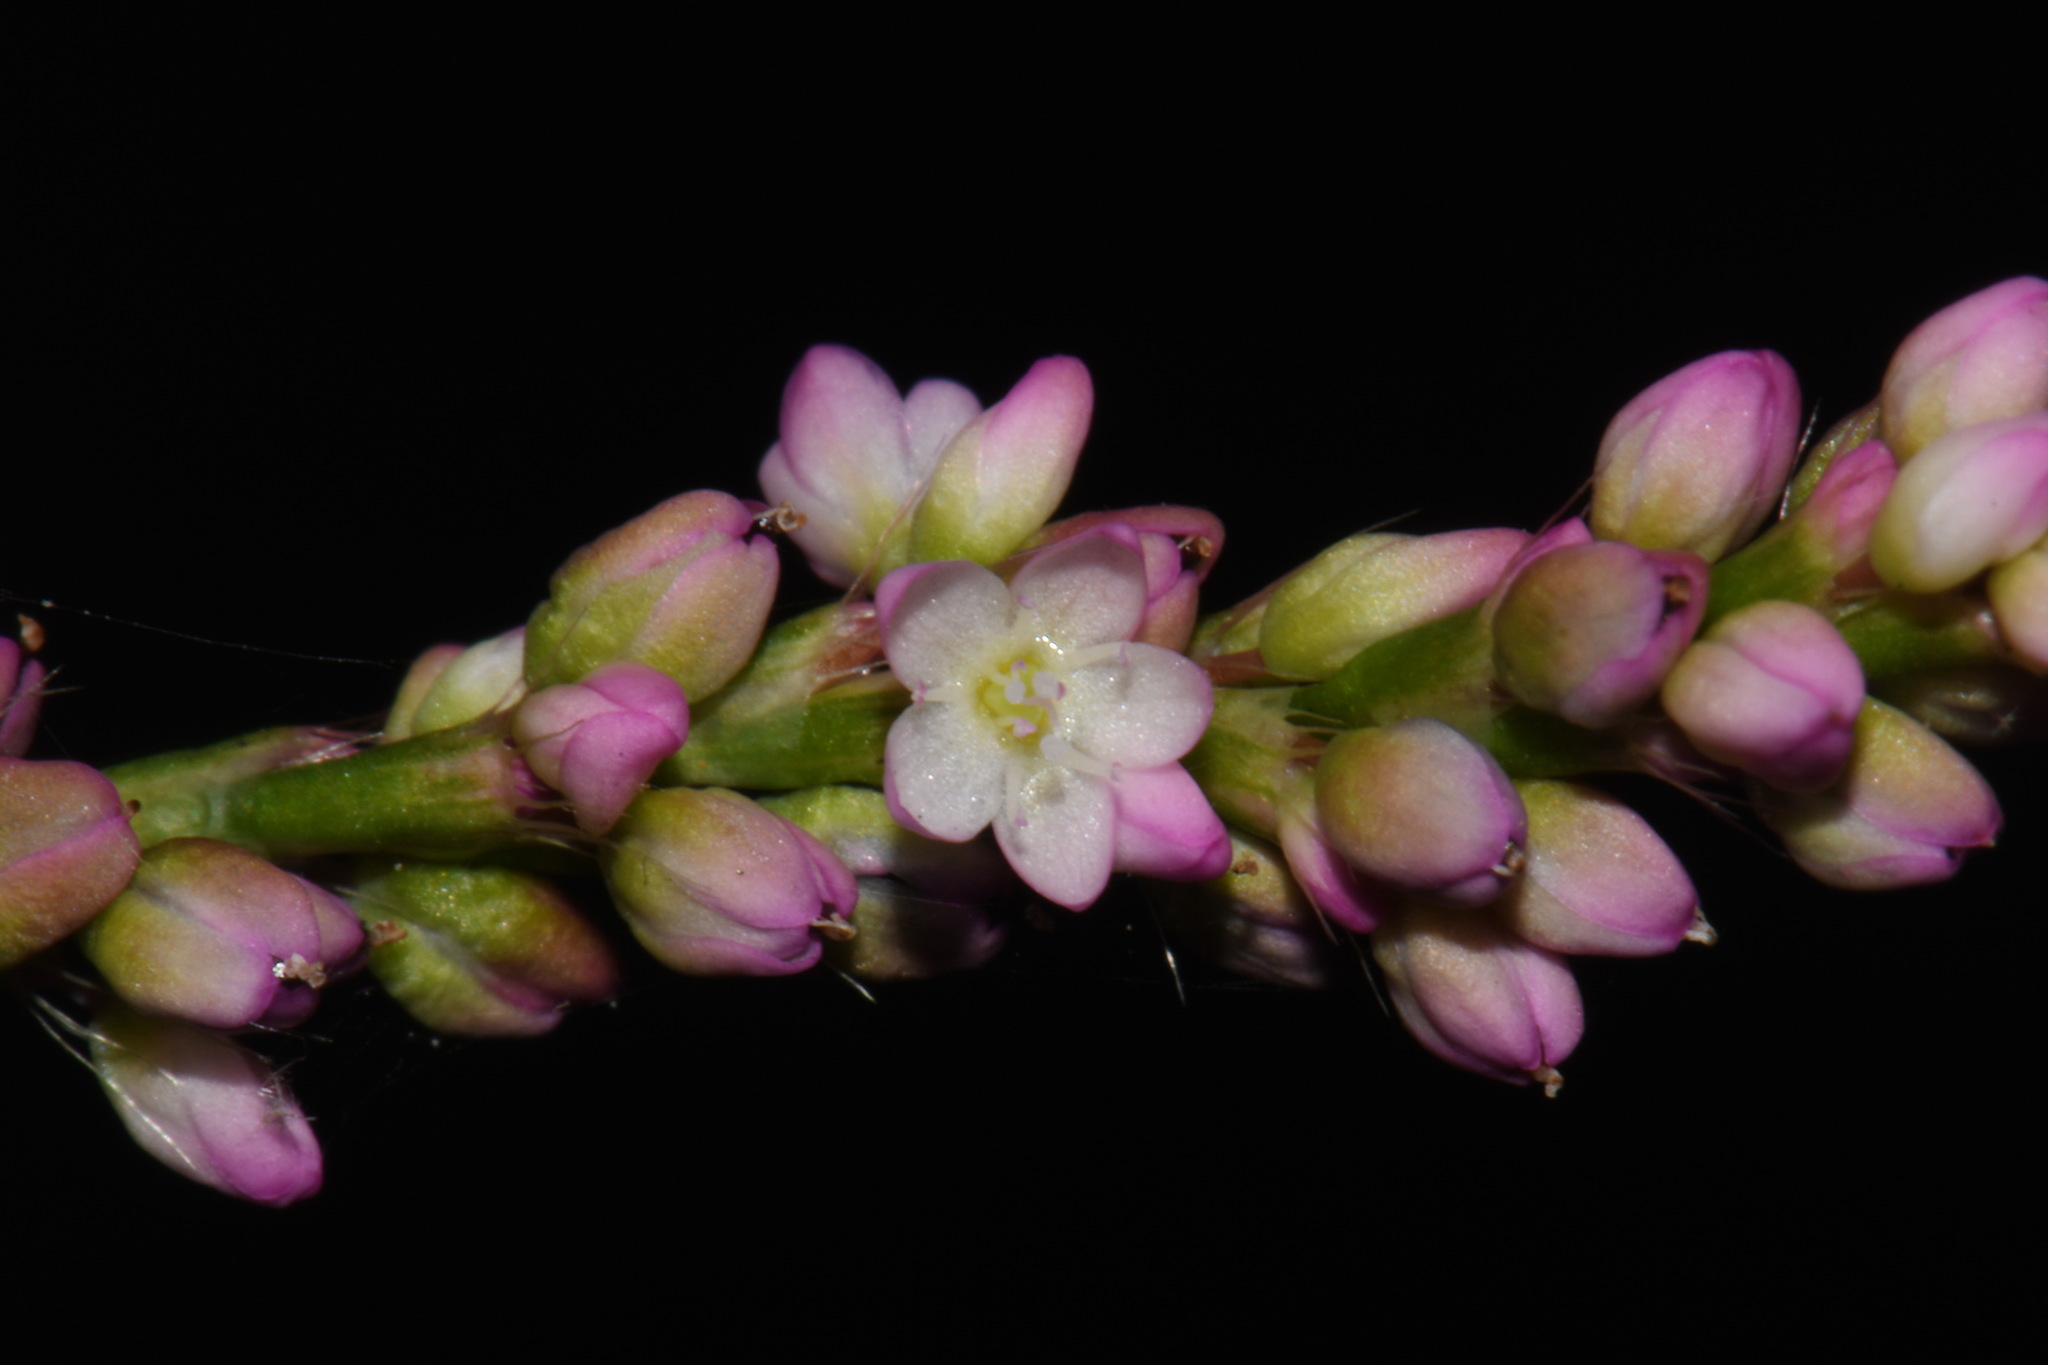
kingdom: Plantae
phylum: Tracheophyta
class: Magnoliopsida
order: Caryophyllales
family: Polygonaceae
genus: Persicaria
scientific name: Persicaria longiseta
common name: Bristly lady's-thumb
